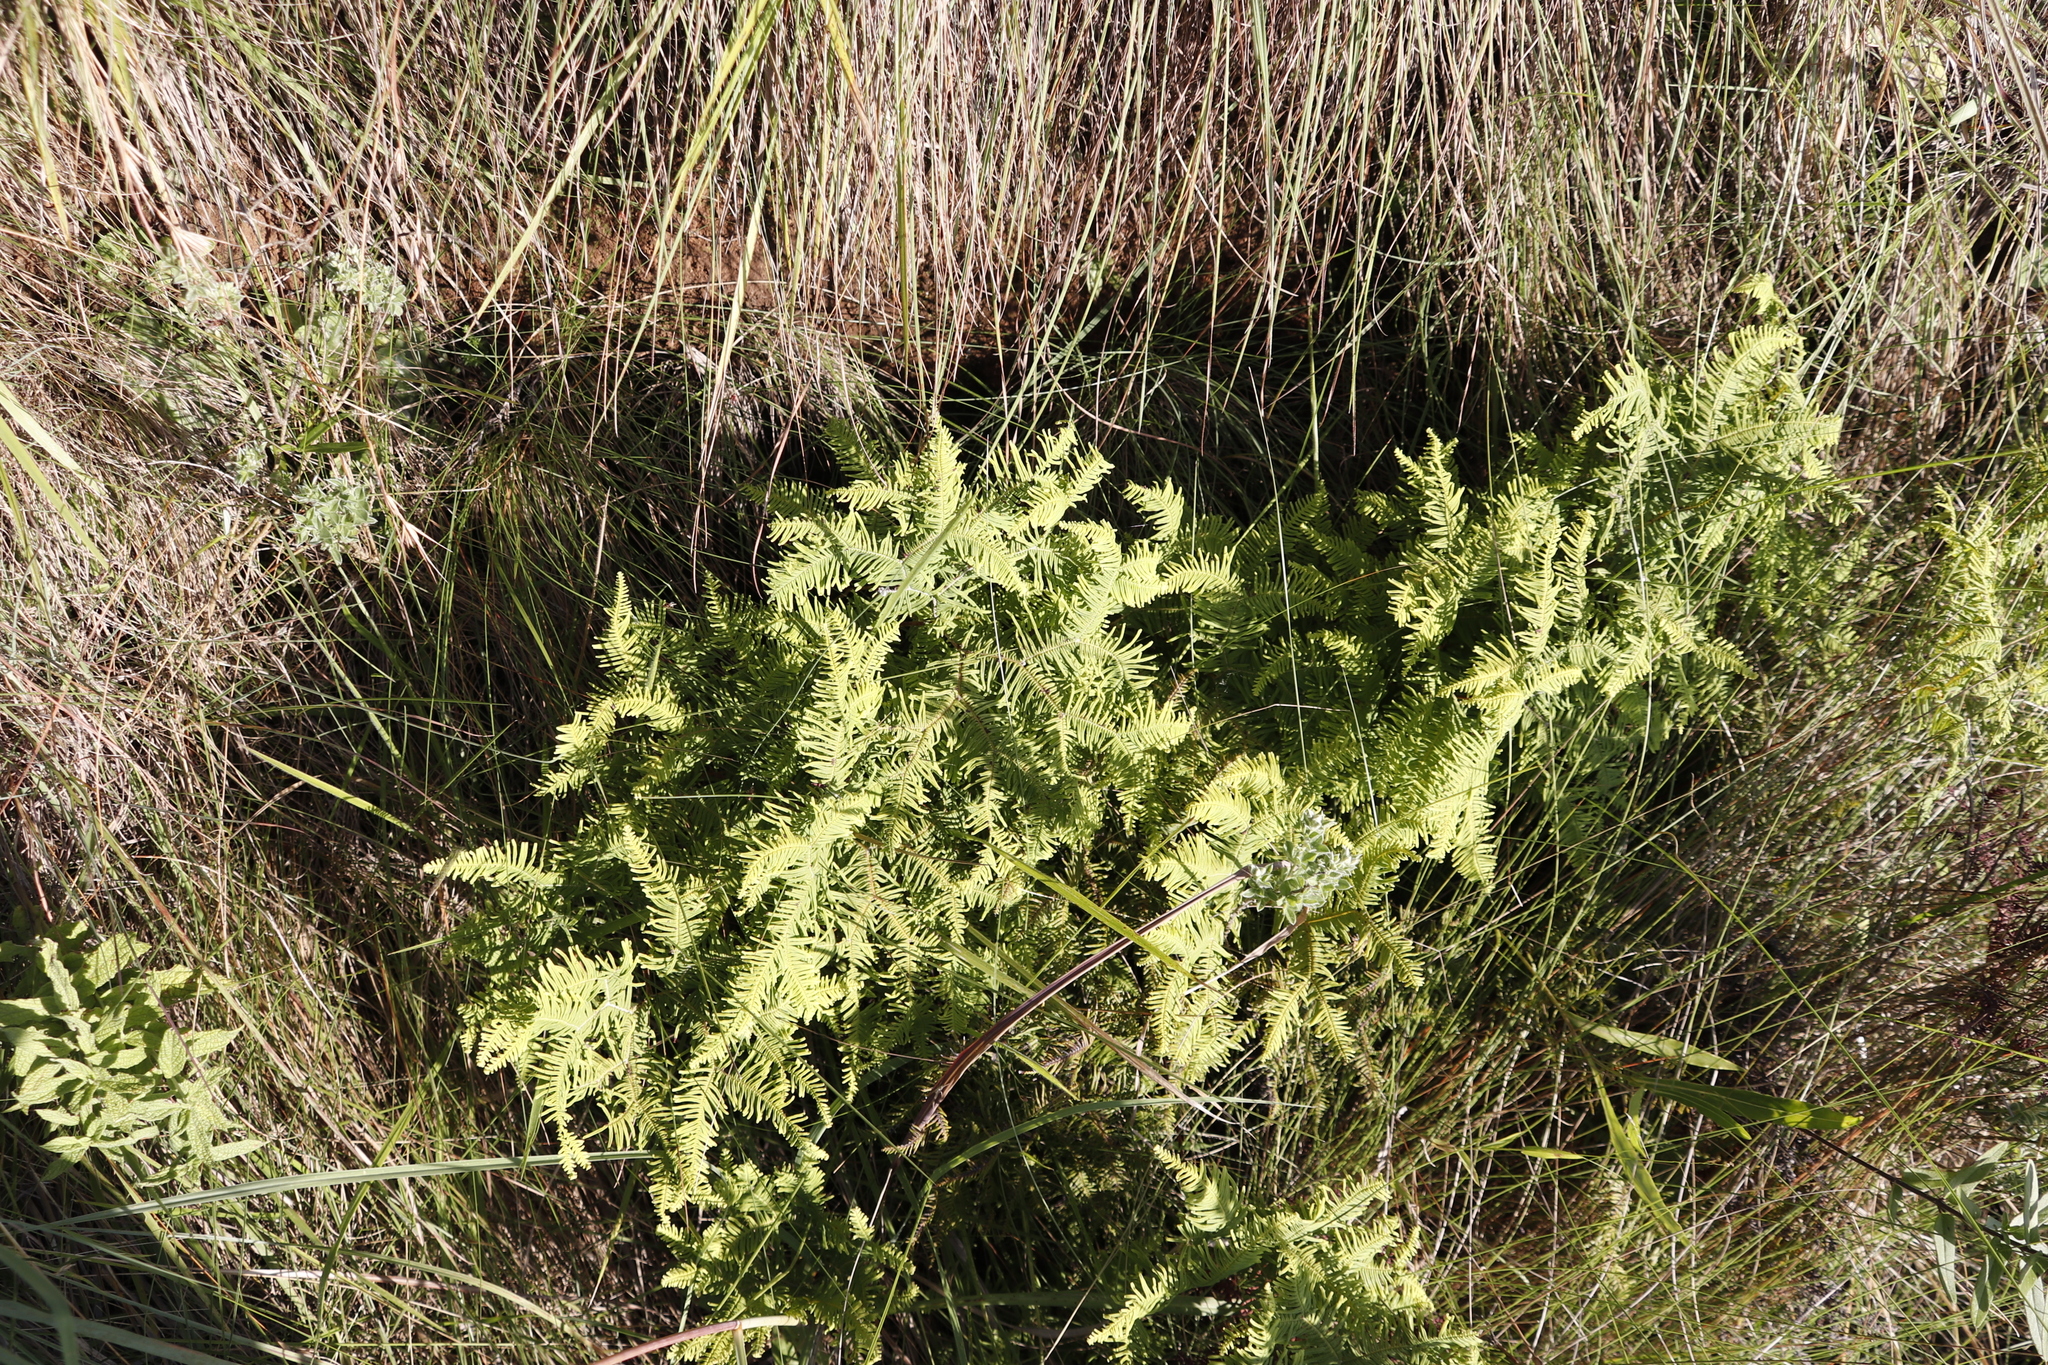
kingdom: Plantae
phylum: Tracheophyta
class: Polypodiopsida
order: Gleicheniales
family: Gleicheniaceae
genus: Sticherus
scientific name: Sticherus umbraculifer
